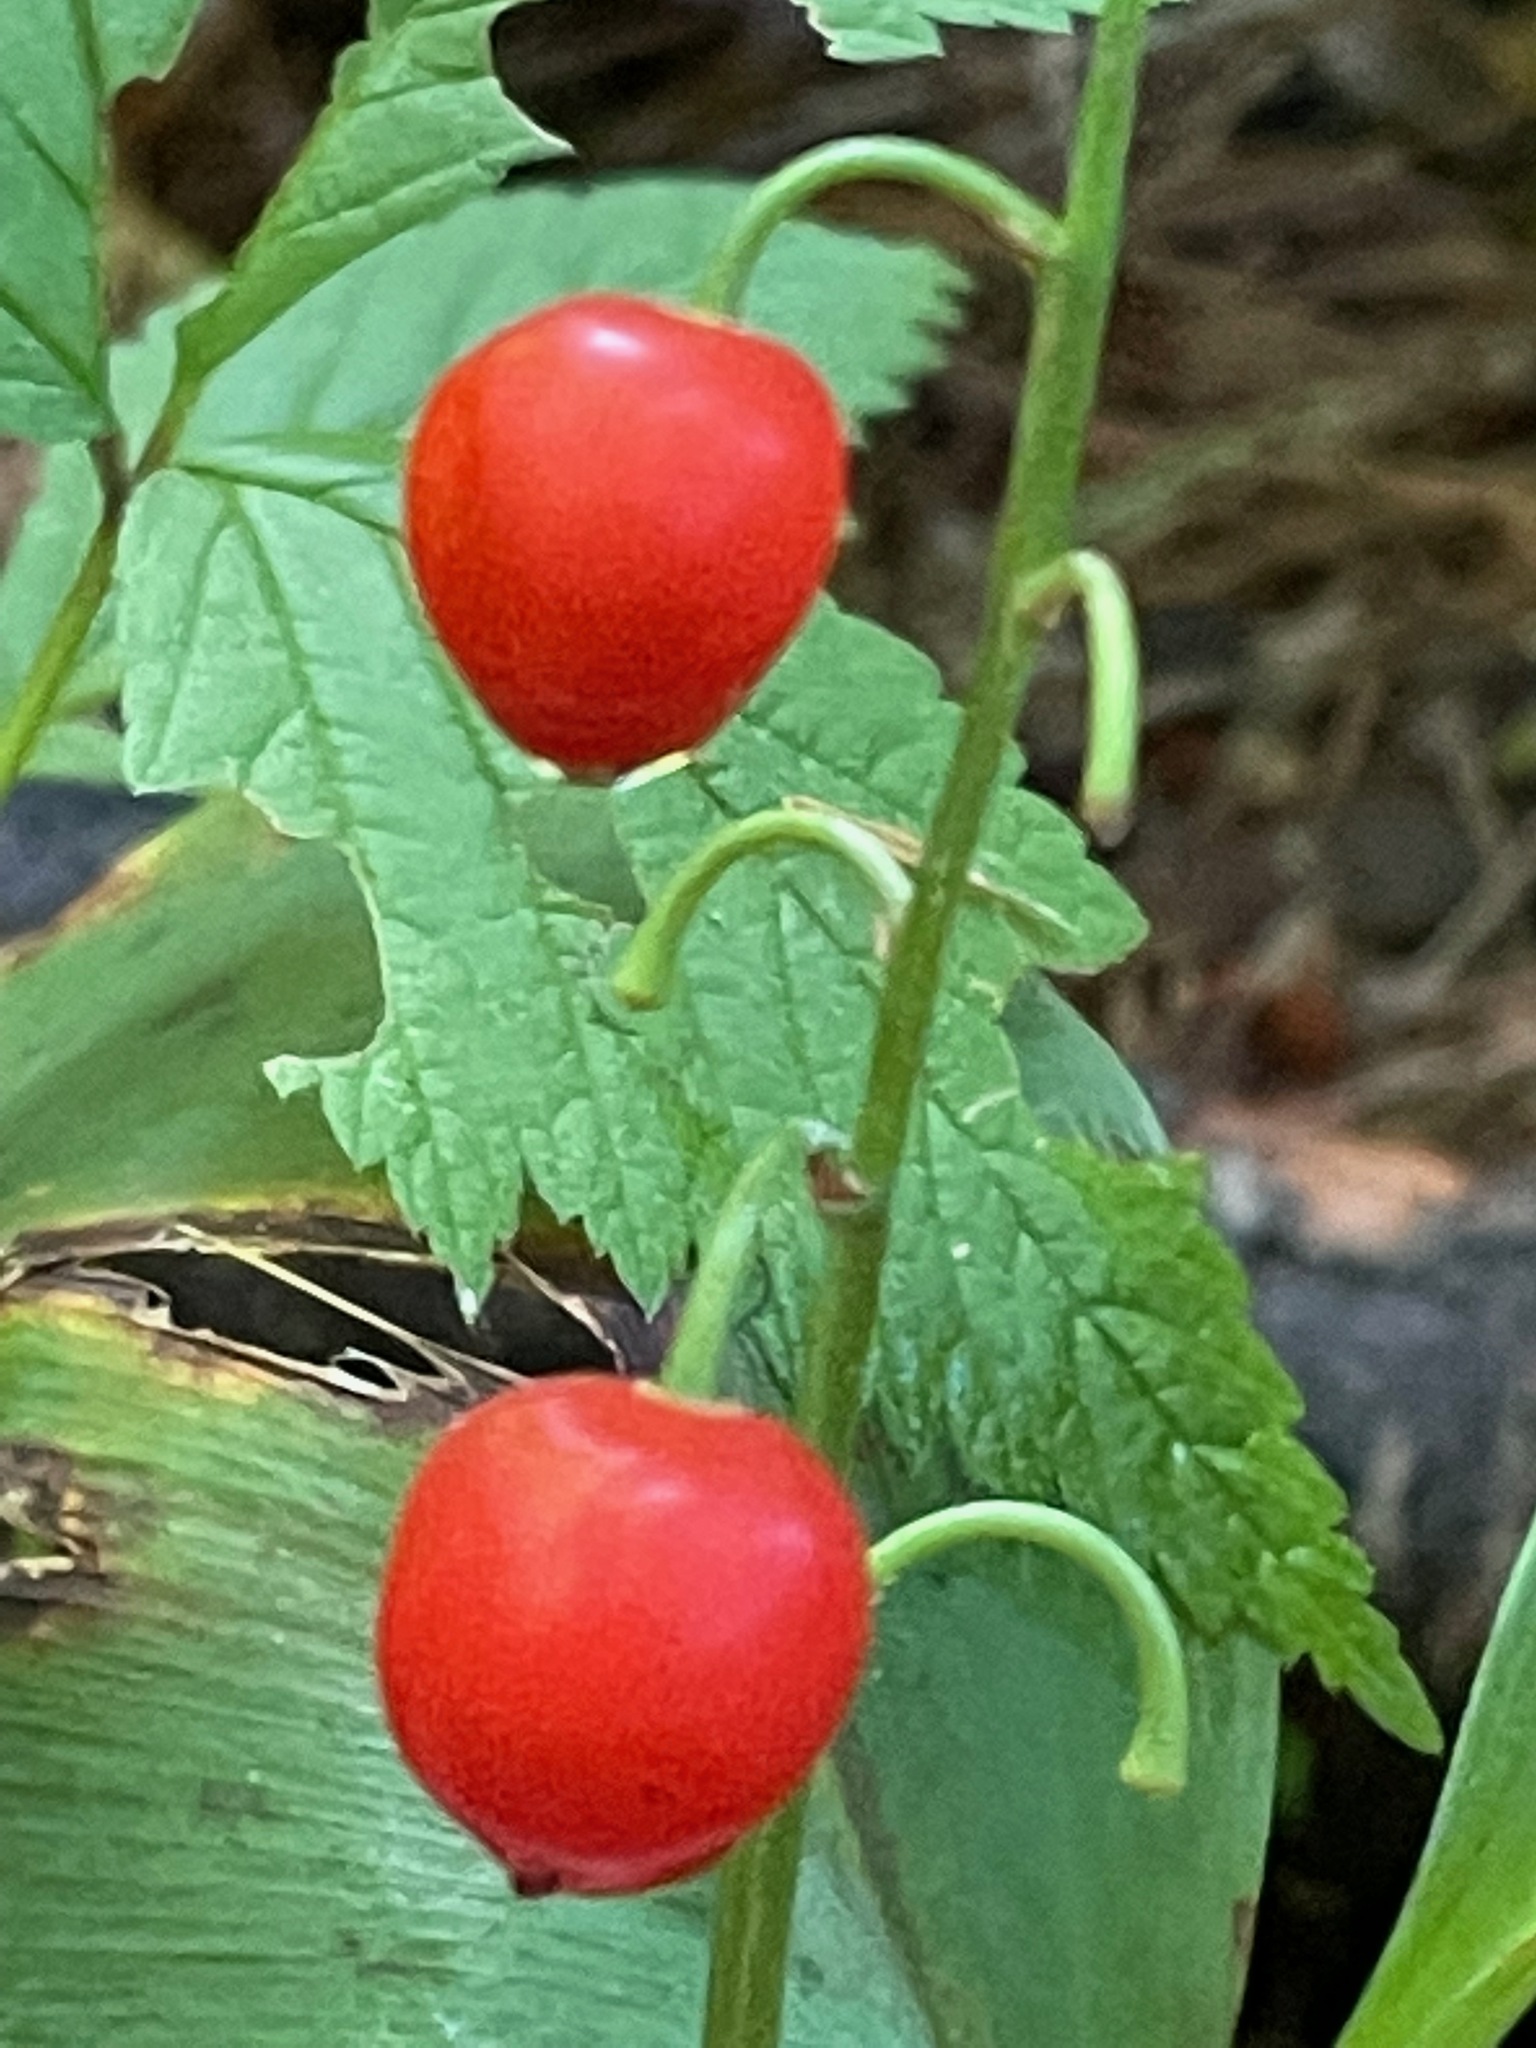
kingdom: Plantae
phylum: Tracheophyta
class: Liliopsida
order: Asparagales
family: Asparagaceae
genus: Convallaria
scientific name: Convallaria majalis
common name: Lily-of-the-valley
